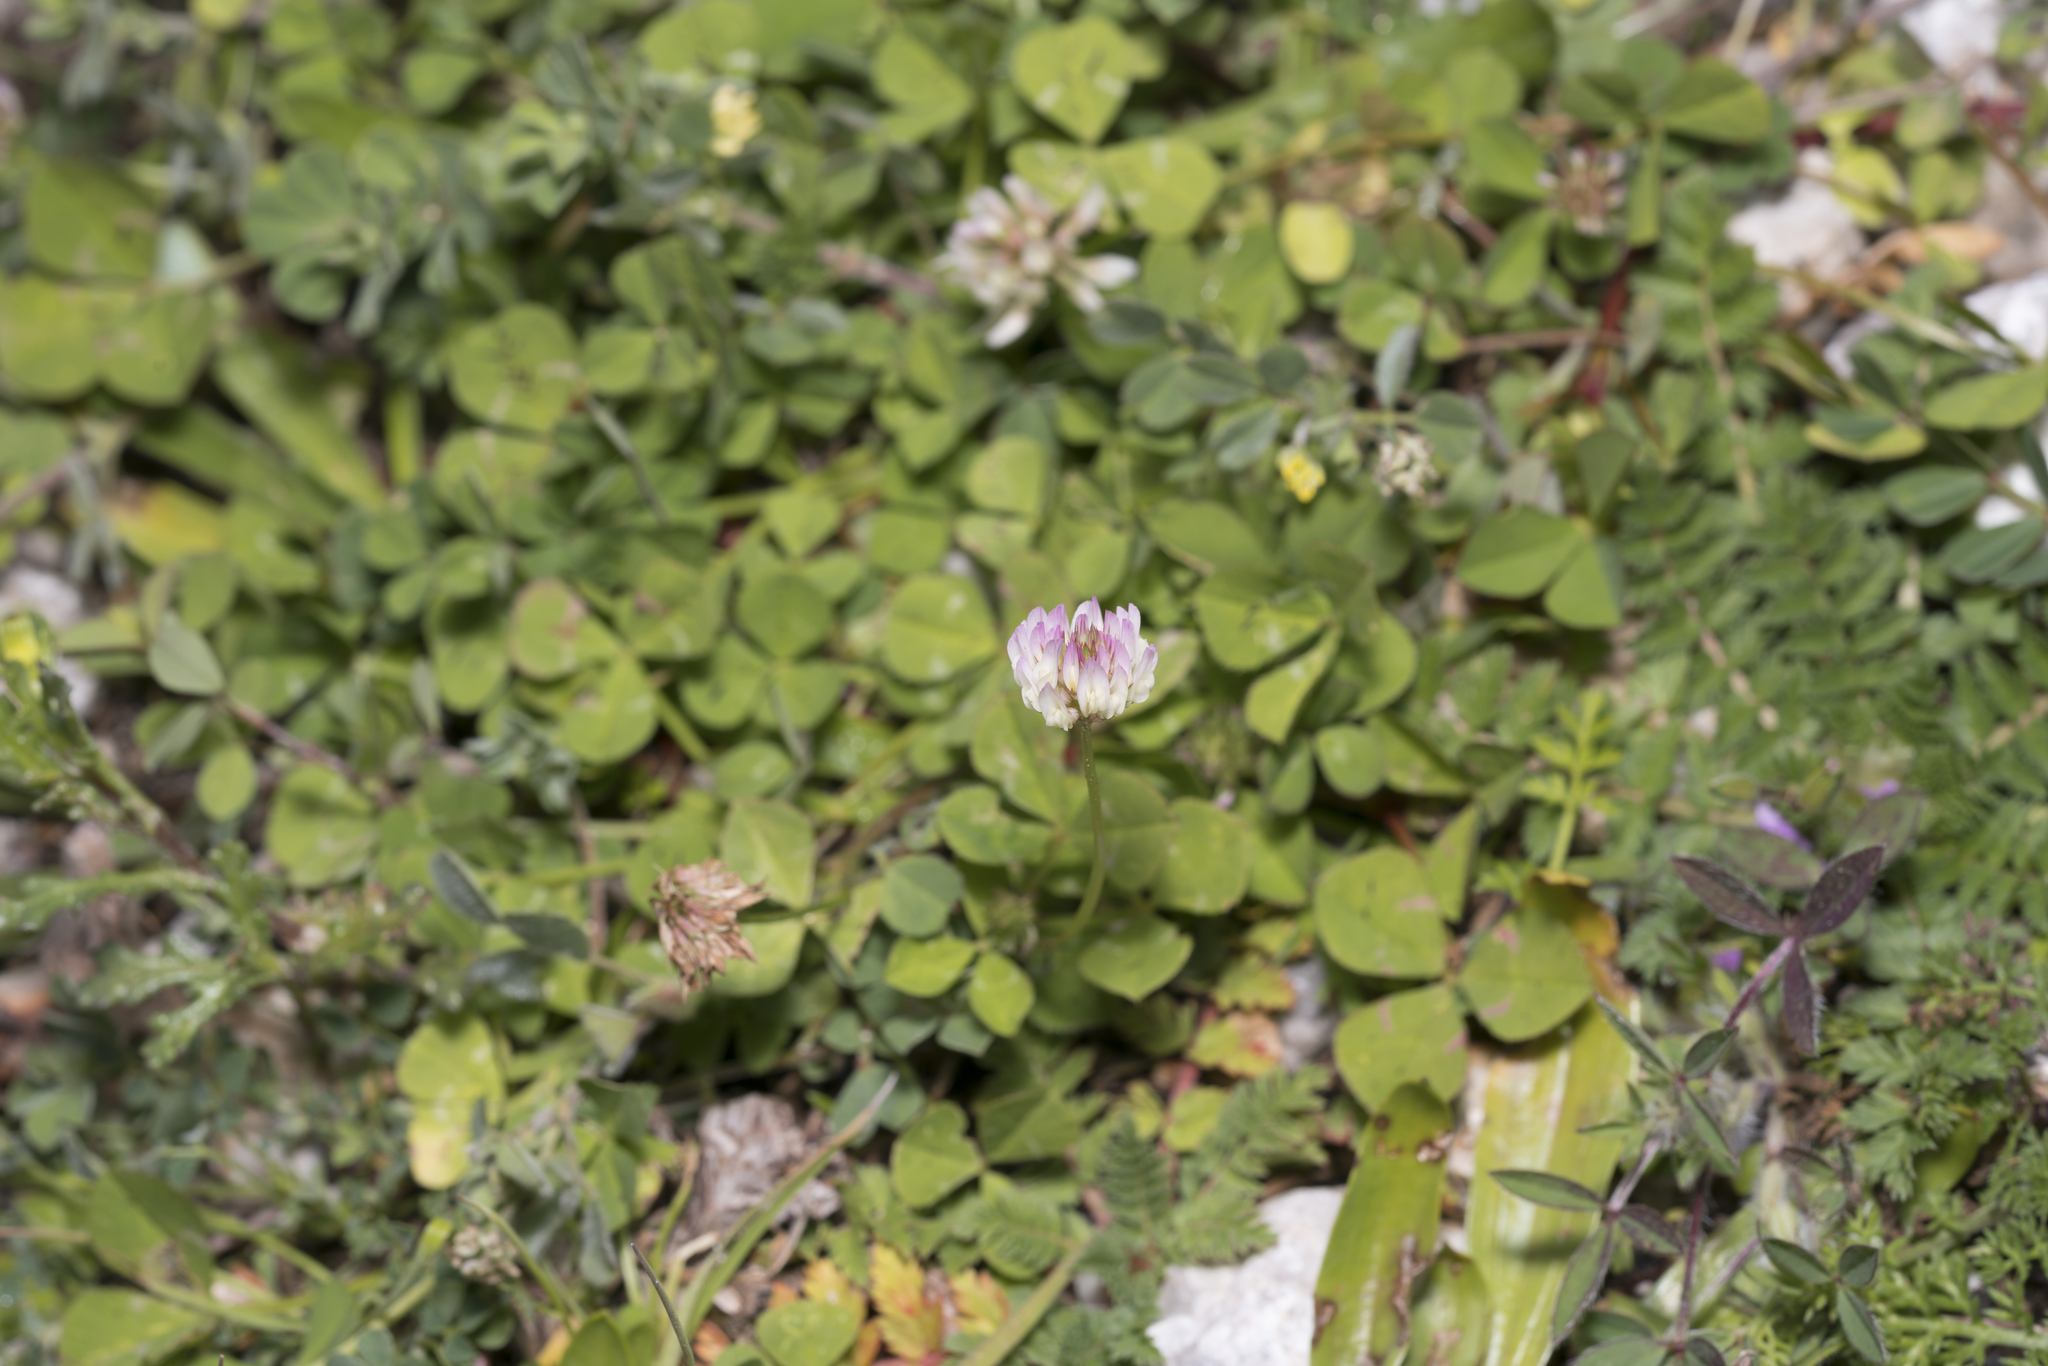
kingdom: Plantae
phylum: Tracheophyta
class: Magnoliopsida
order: Fabales
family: Fabaceae
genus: Trifolium
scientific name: Trifolium nigrescens
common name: Small white clover
